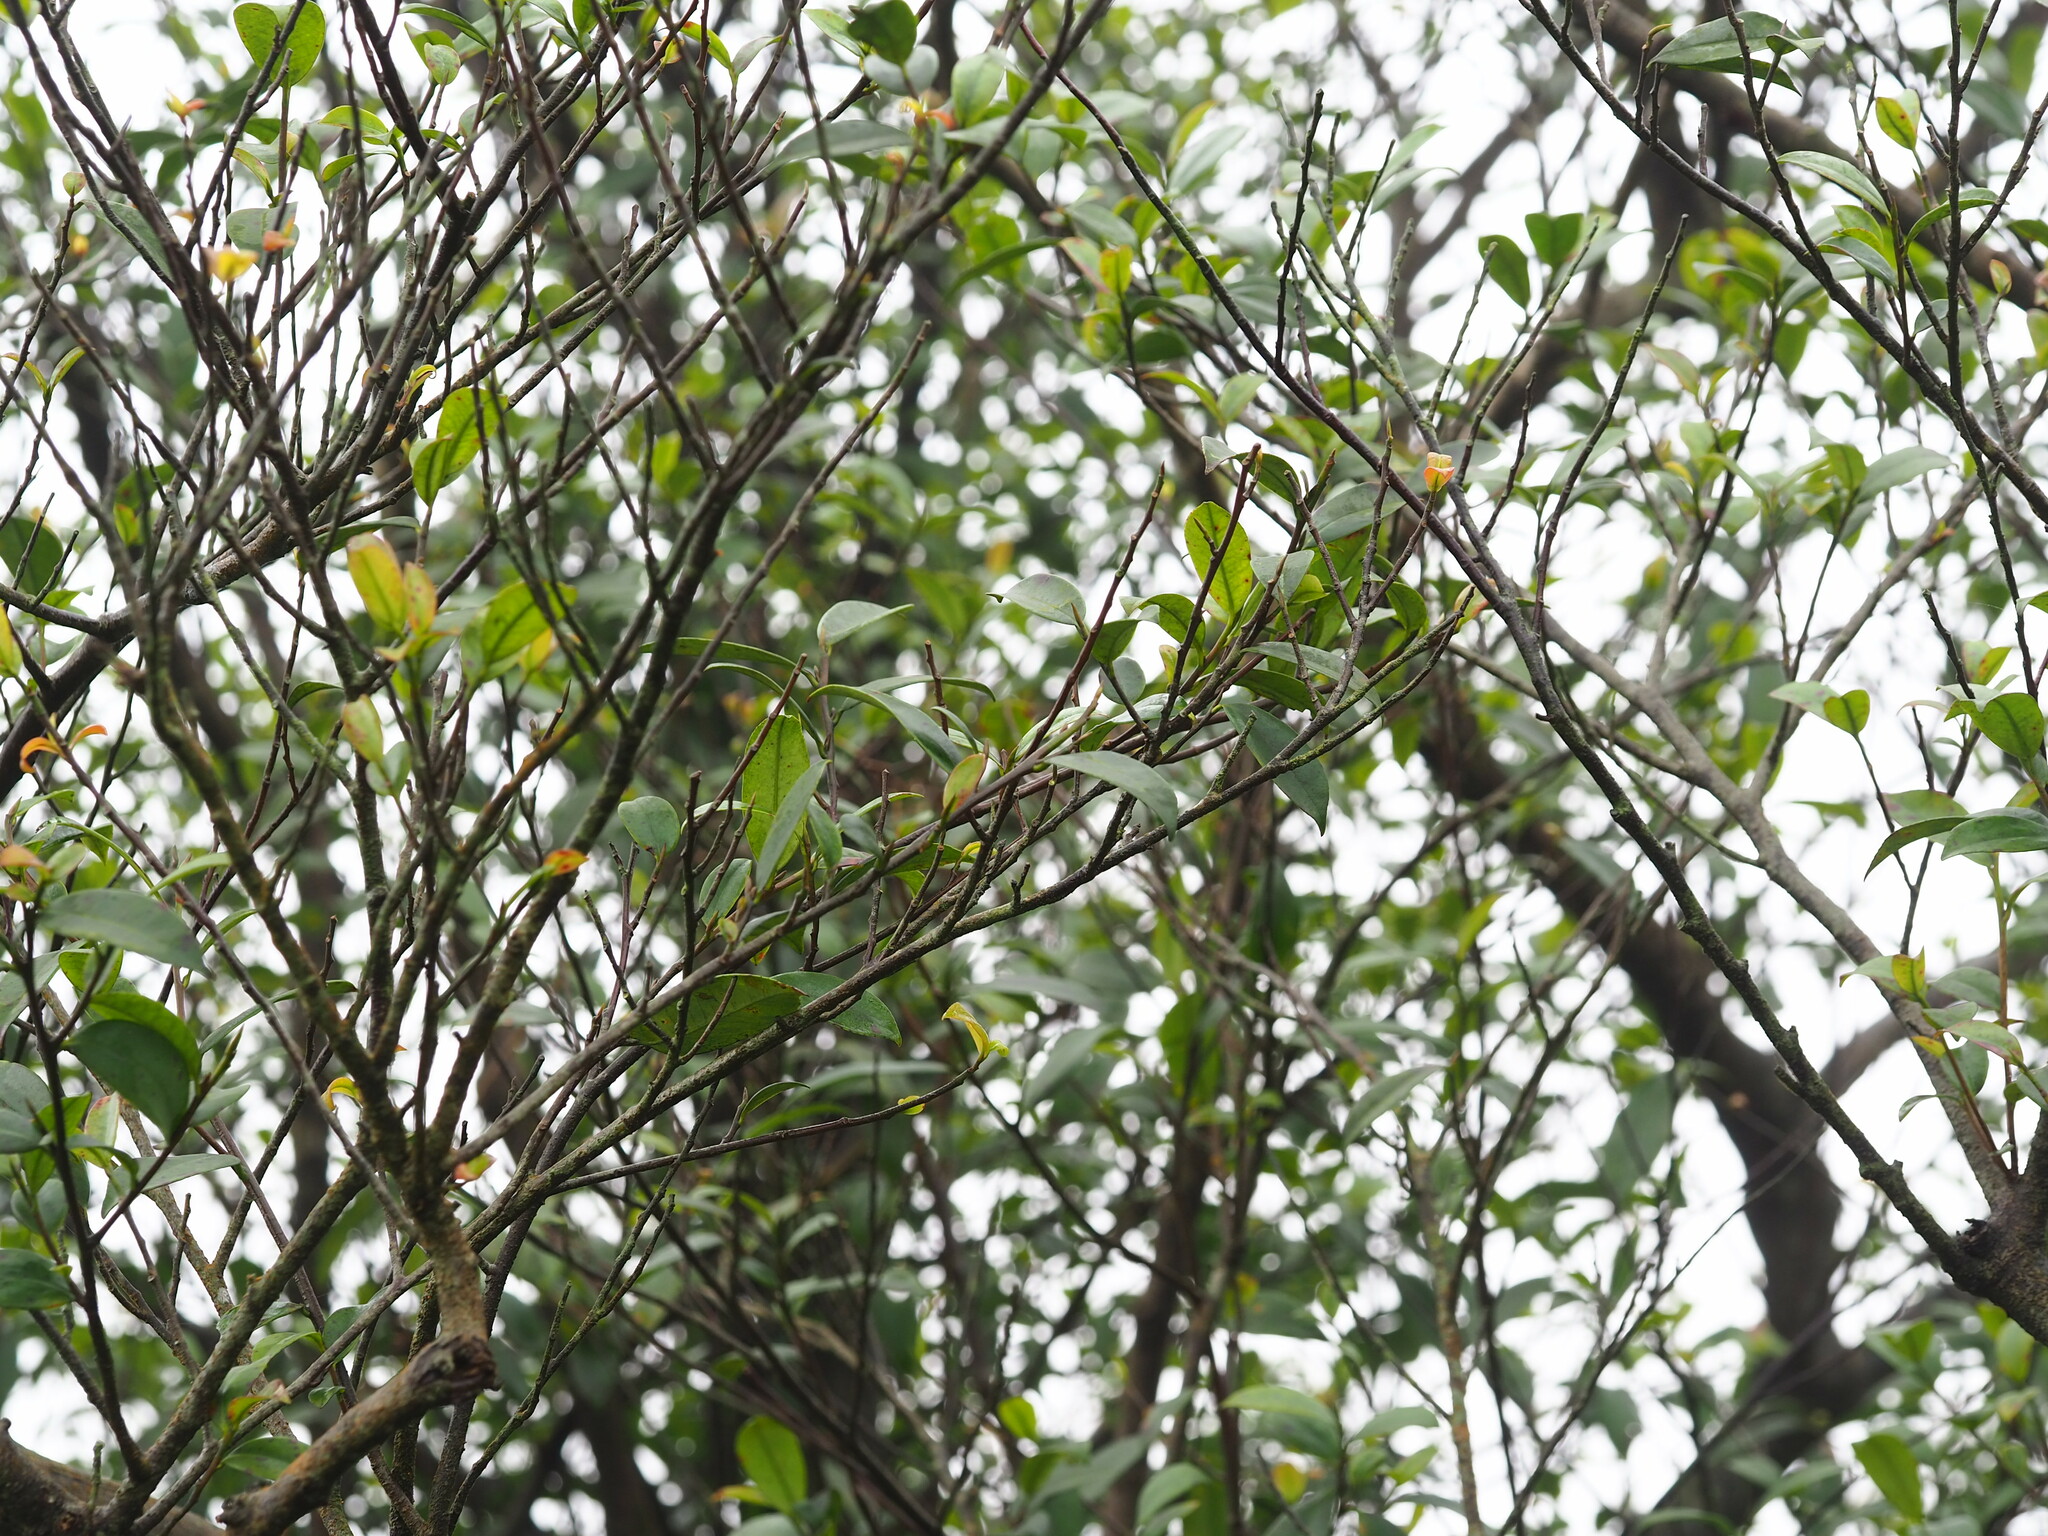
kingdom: Plantae
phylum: Tracheophyta
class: Magnoliopsida
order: Ericales
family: Pentaphylacaceae
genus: Adinandra
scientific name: Adinandra formosana
